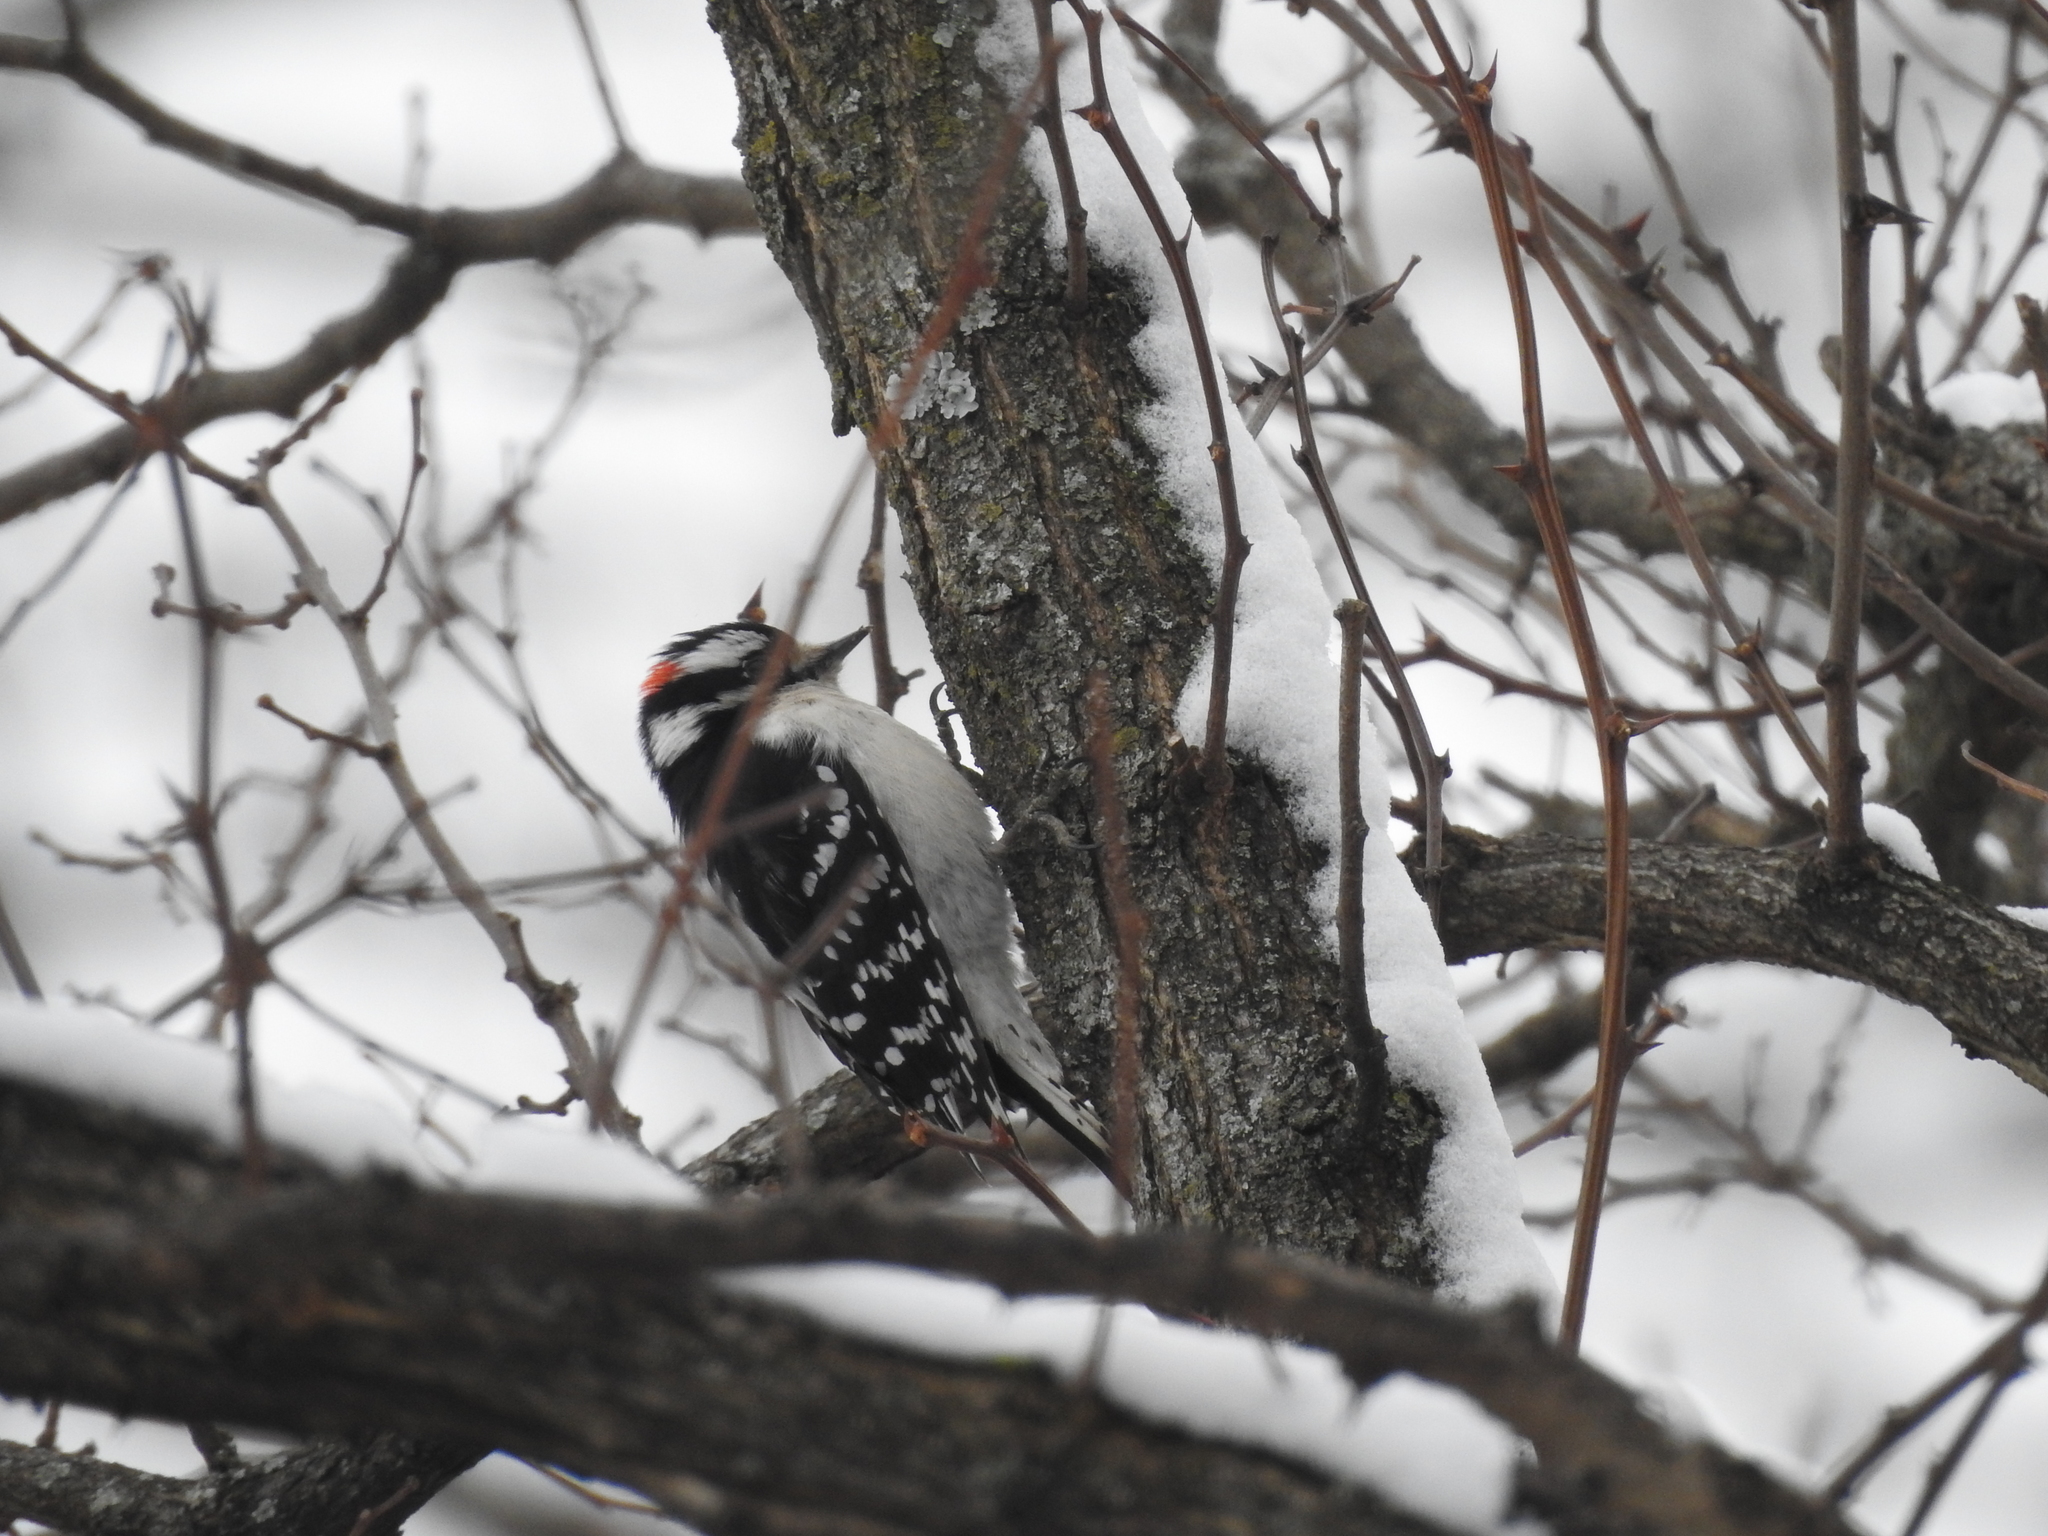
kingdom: Animalia
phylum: Chordata
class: Aves
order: Piciformes
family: Picidae
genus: Dryobates
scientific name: Dryobates pubescens
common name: Downy woodpecker
